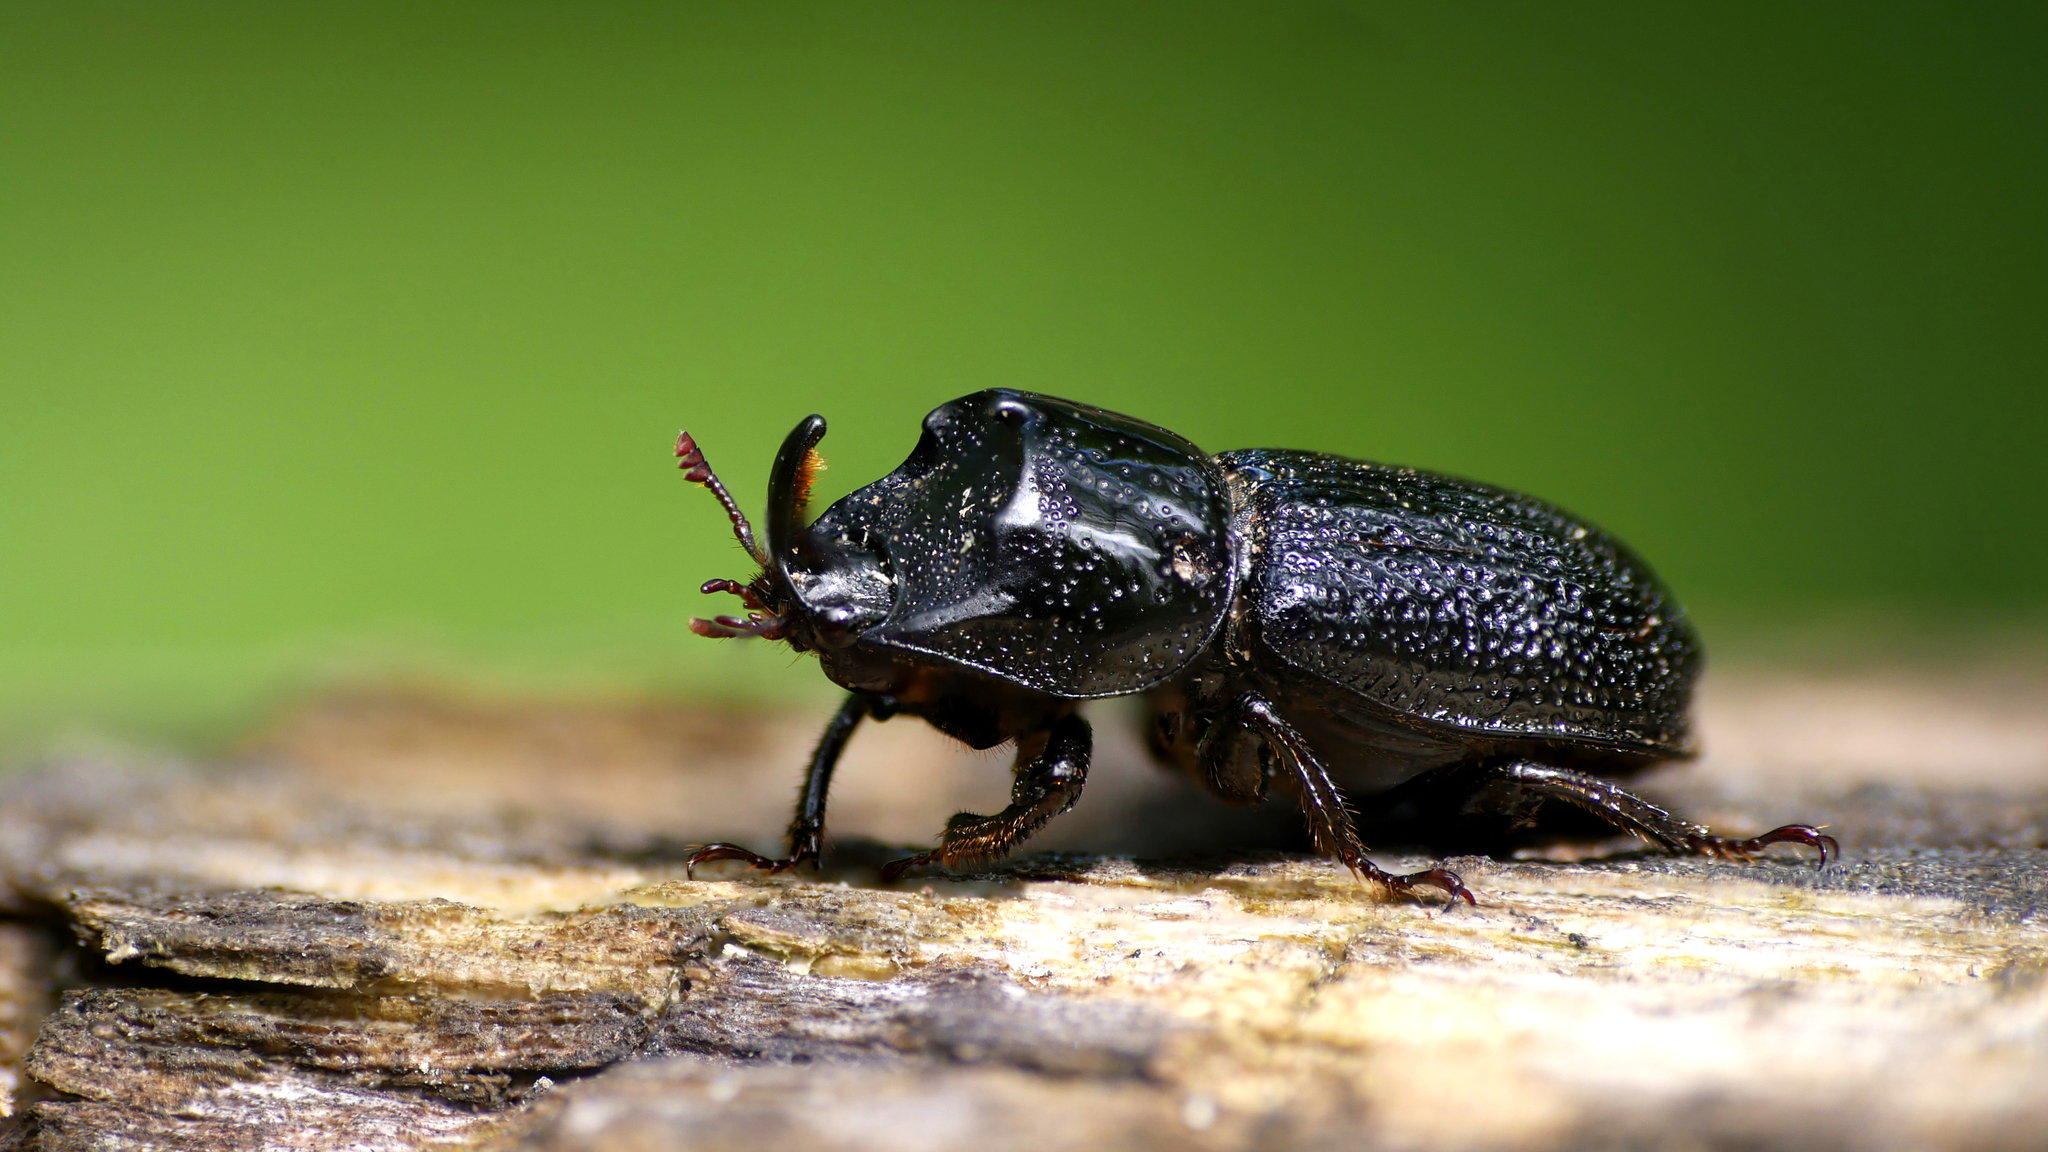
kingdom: Animalia
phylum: Arthropoda
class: Insecta
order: Coleoptera
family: Lucanidae
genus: Sinodendron
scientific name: Sinodendron cylindricum
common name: Rhinoceros beetle
